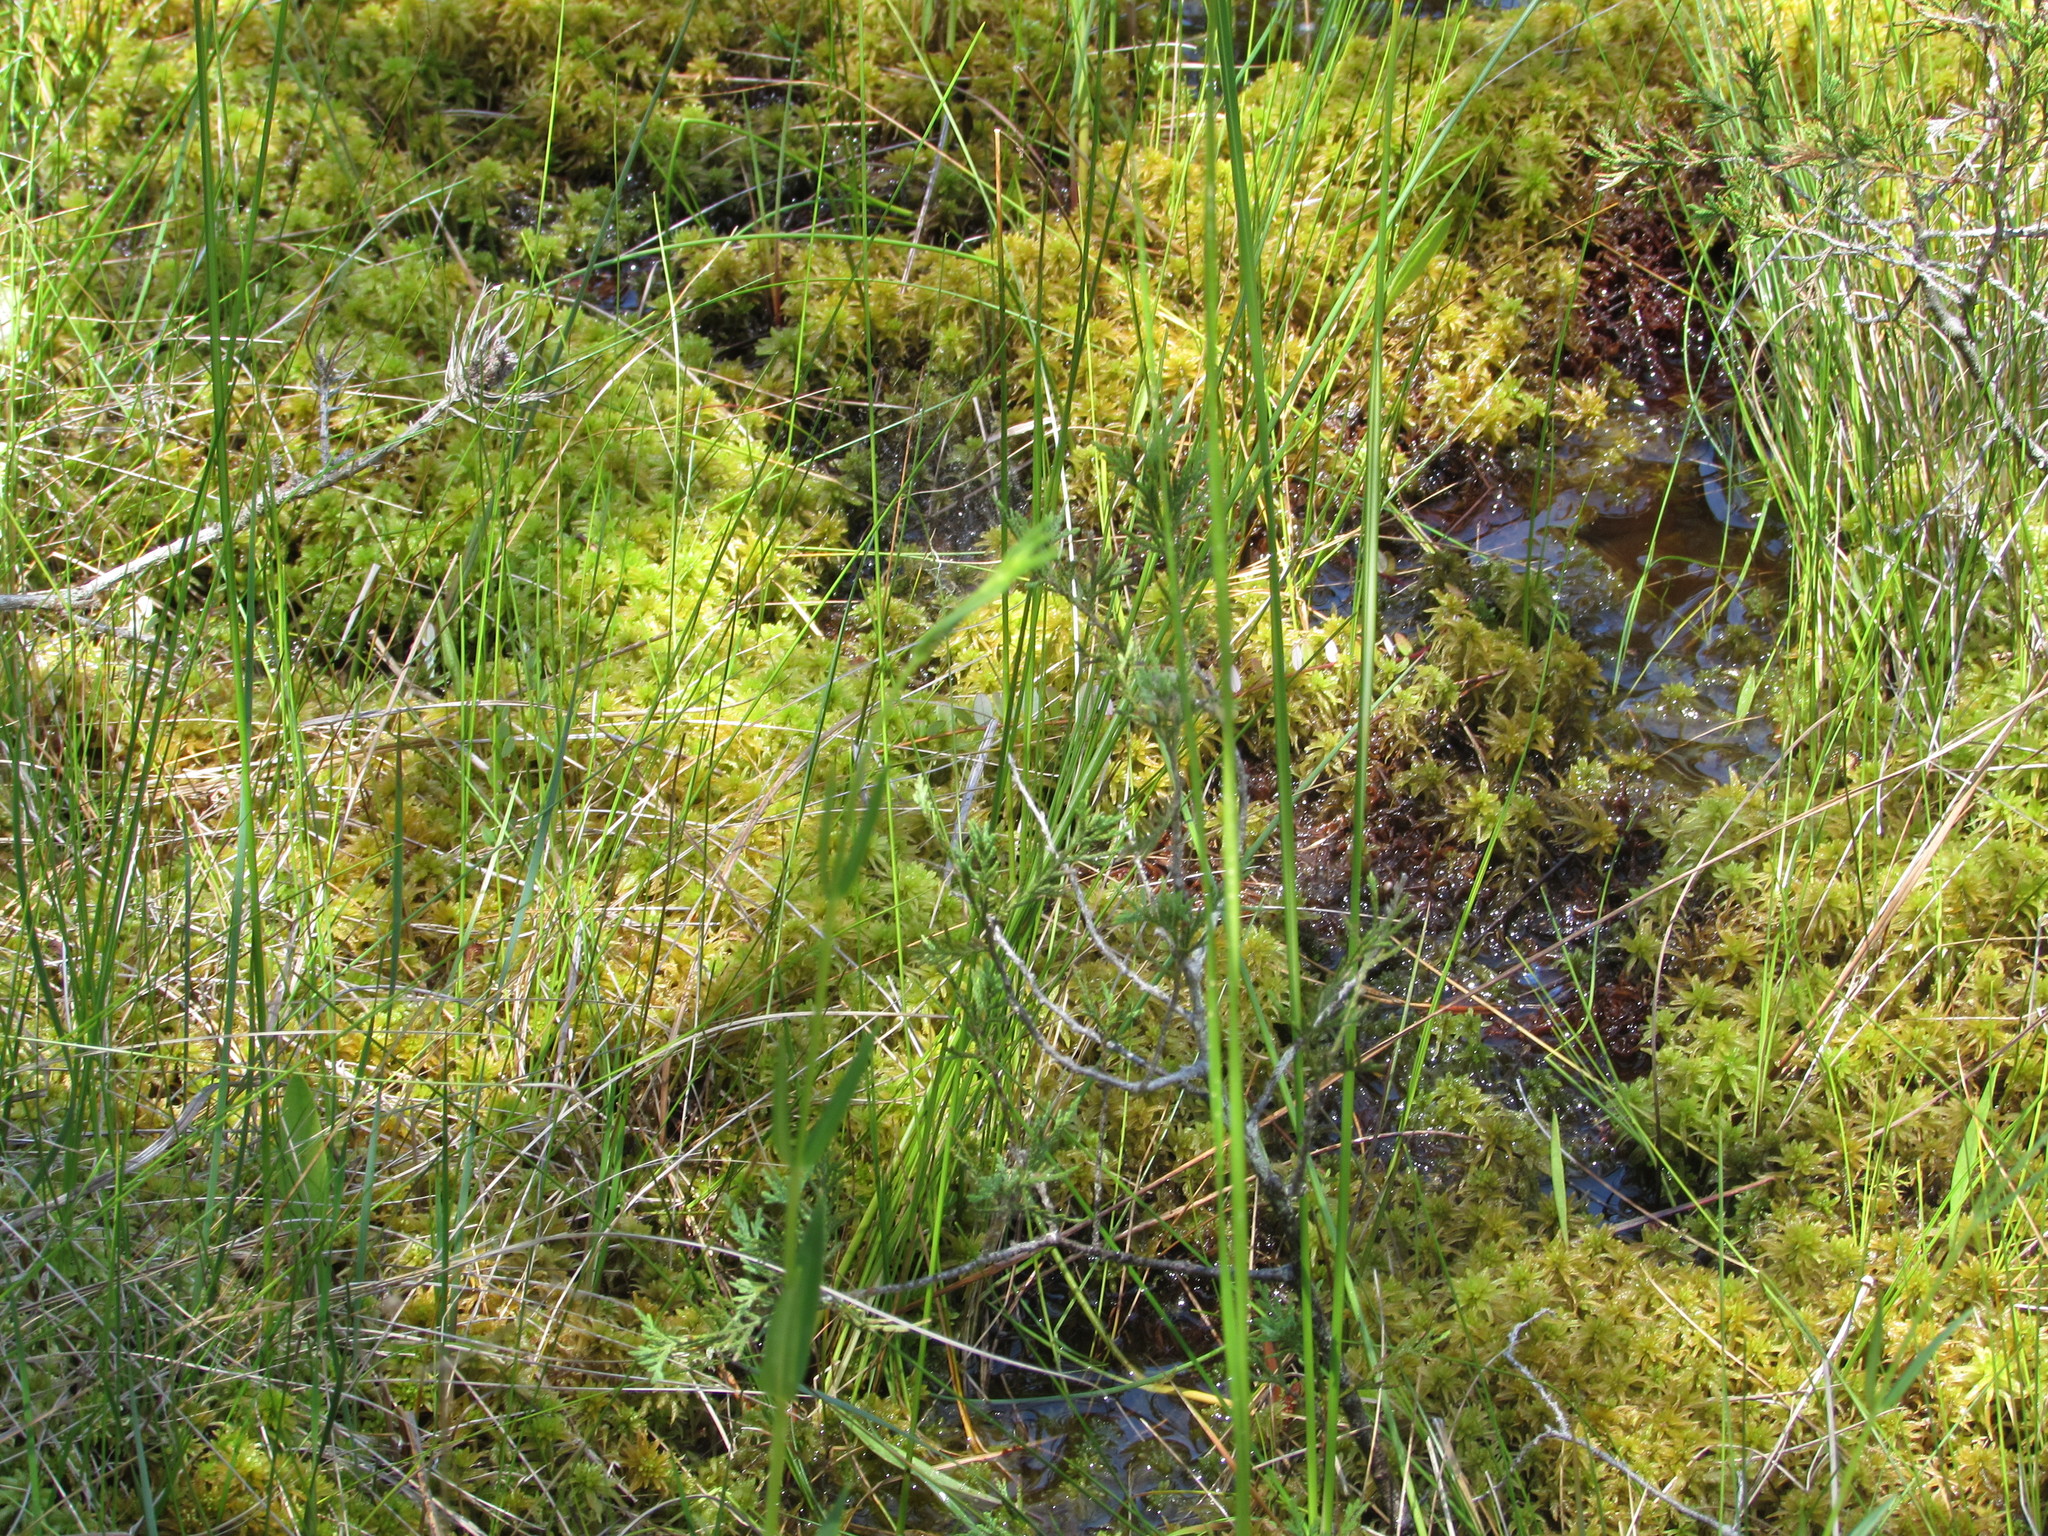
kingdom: Plantae
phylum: Tracheophyta
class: Magnoliopsida
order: Gentianales
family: Gentianaceae
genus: Sabatia
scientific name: Sabatia difformis
